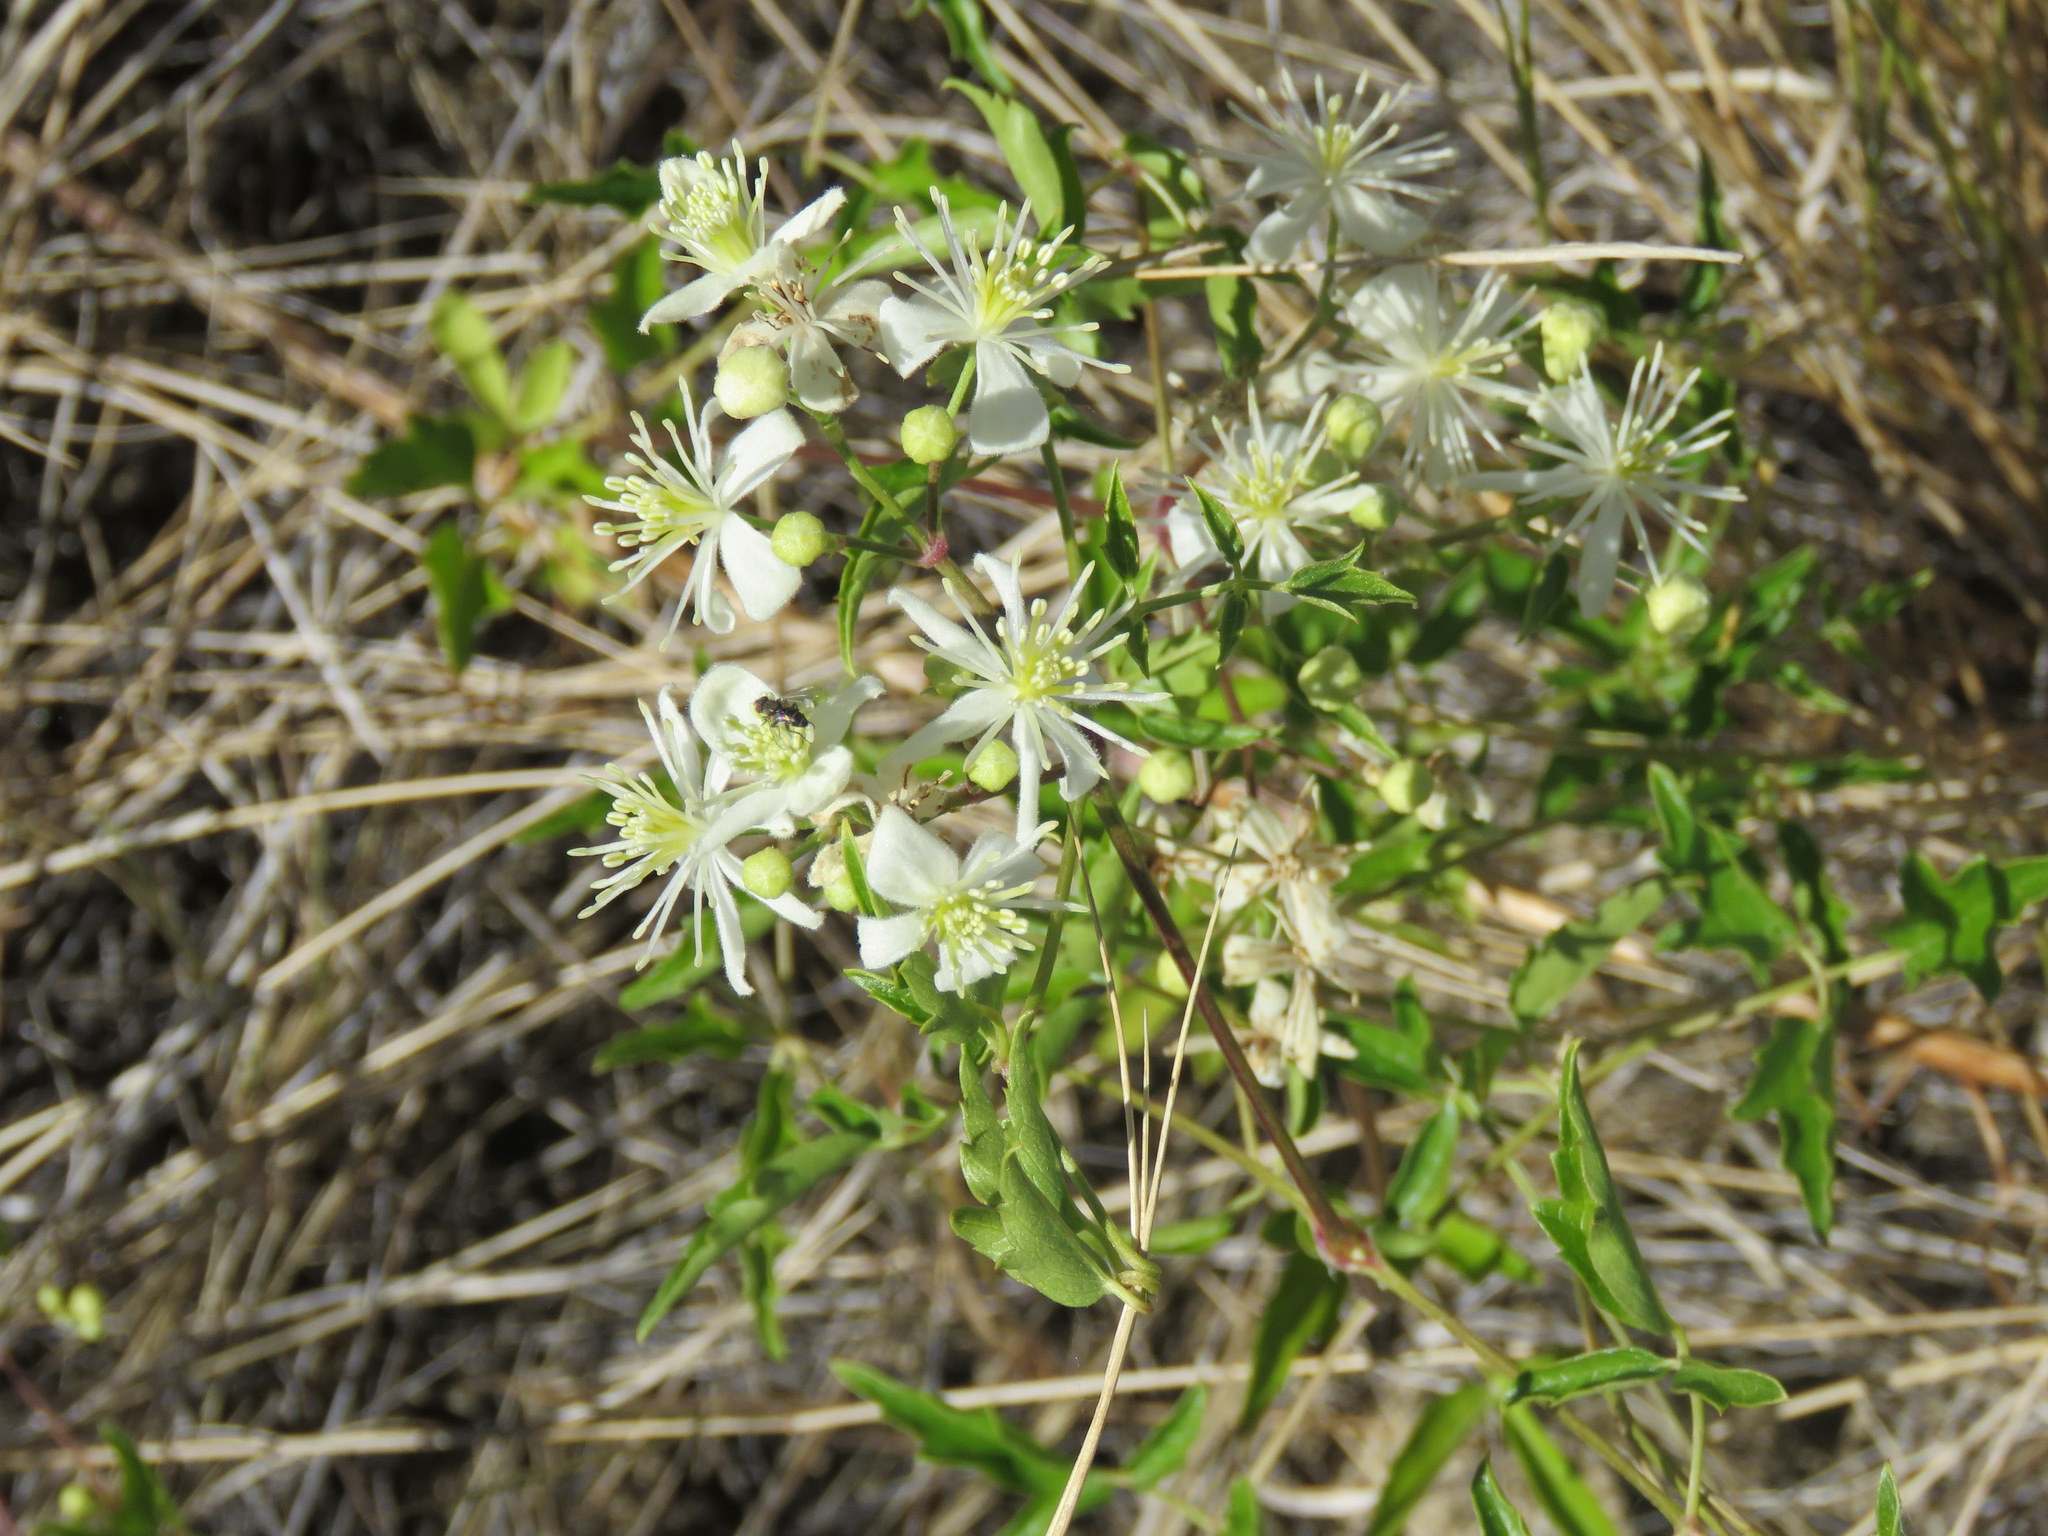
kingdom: Plantae
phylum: Tracheophyta
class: Magnoliopsida
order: Ranunculales
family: Ranunculaceae
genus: Clematis
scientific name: Clematis ligusticifolia
